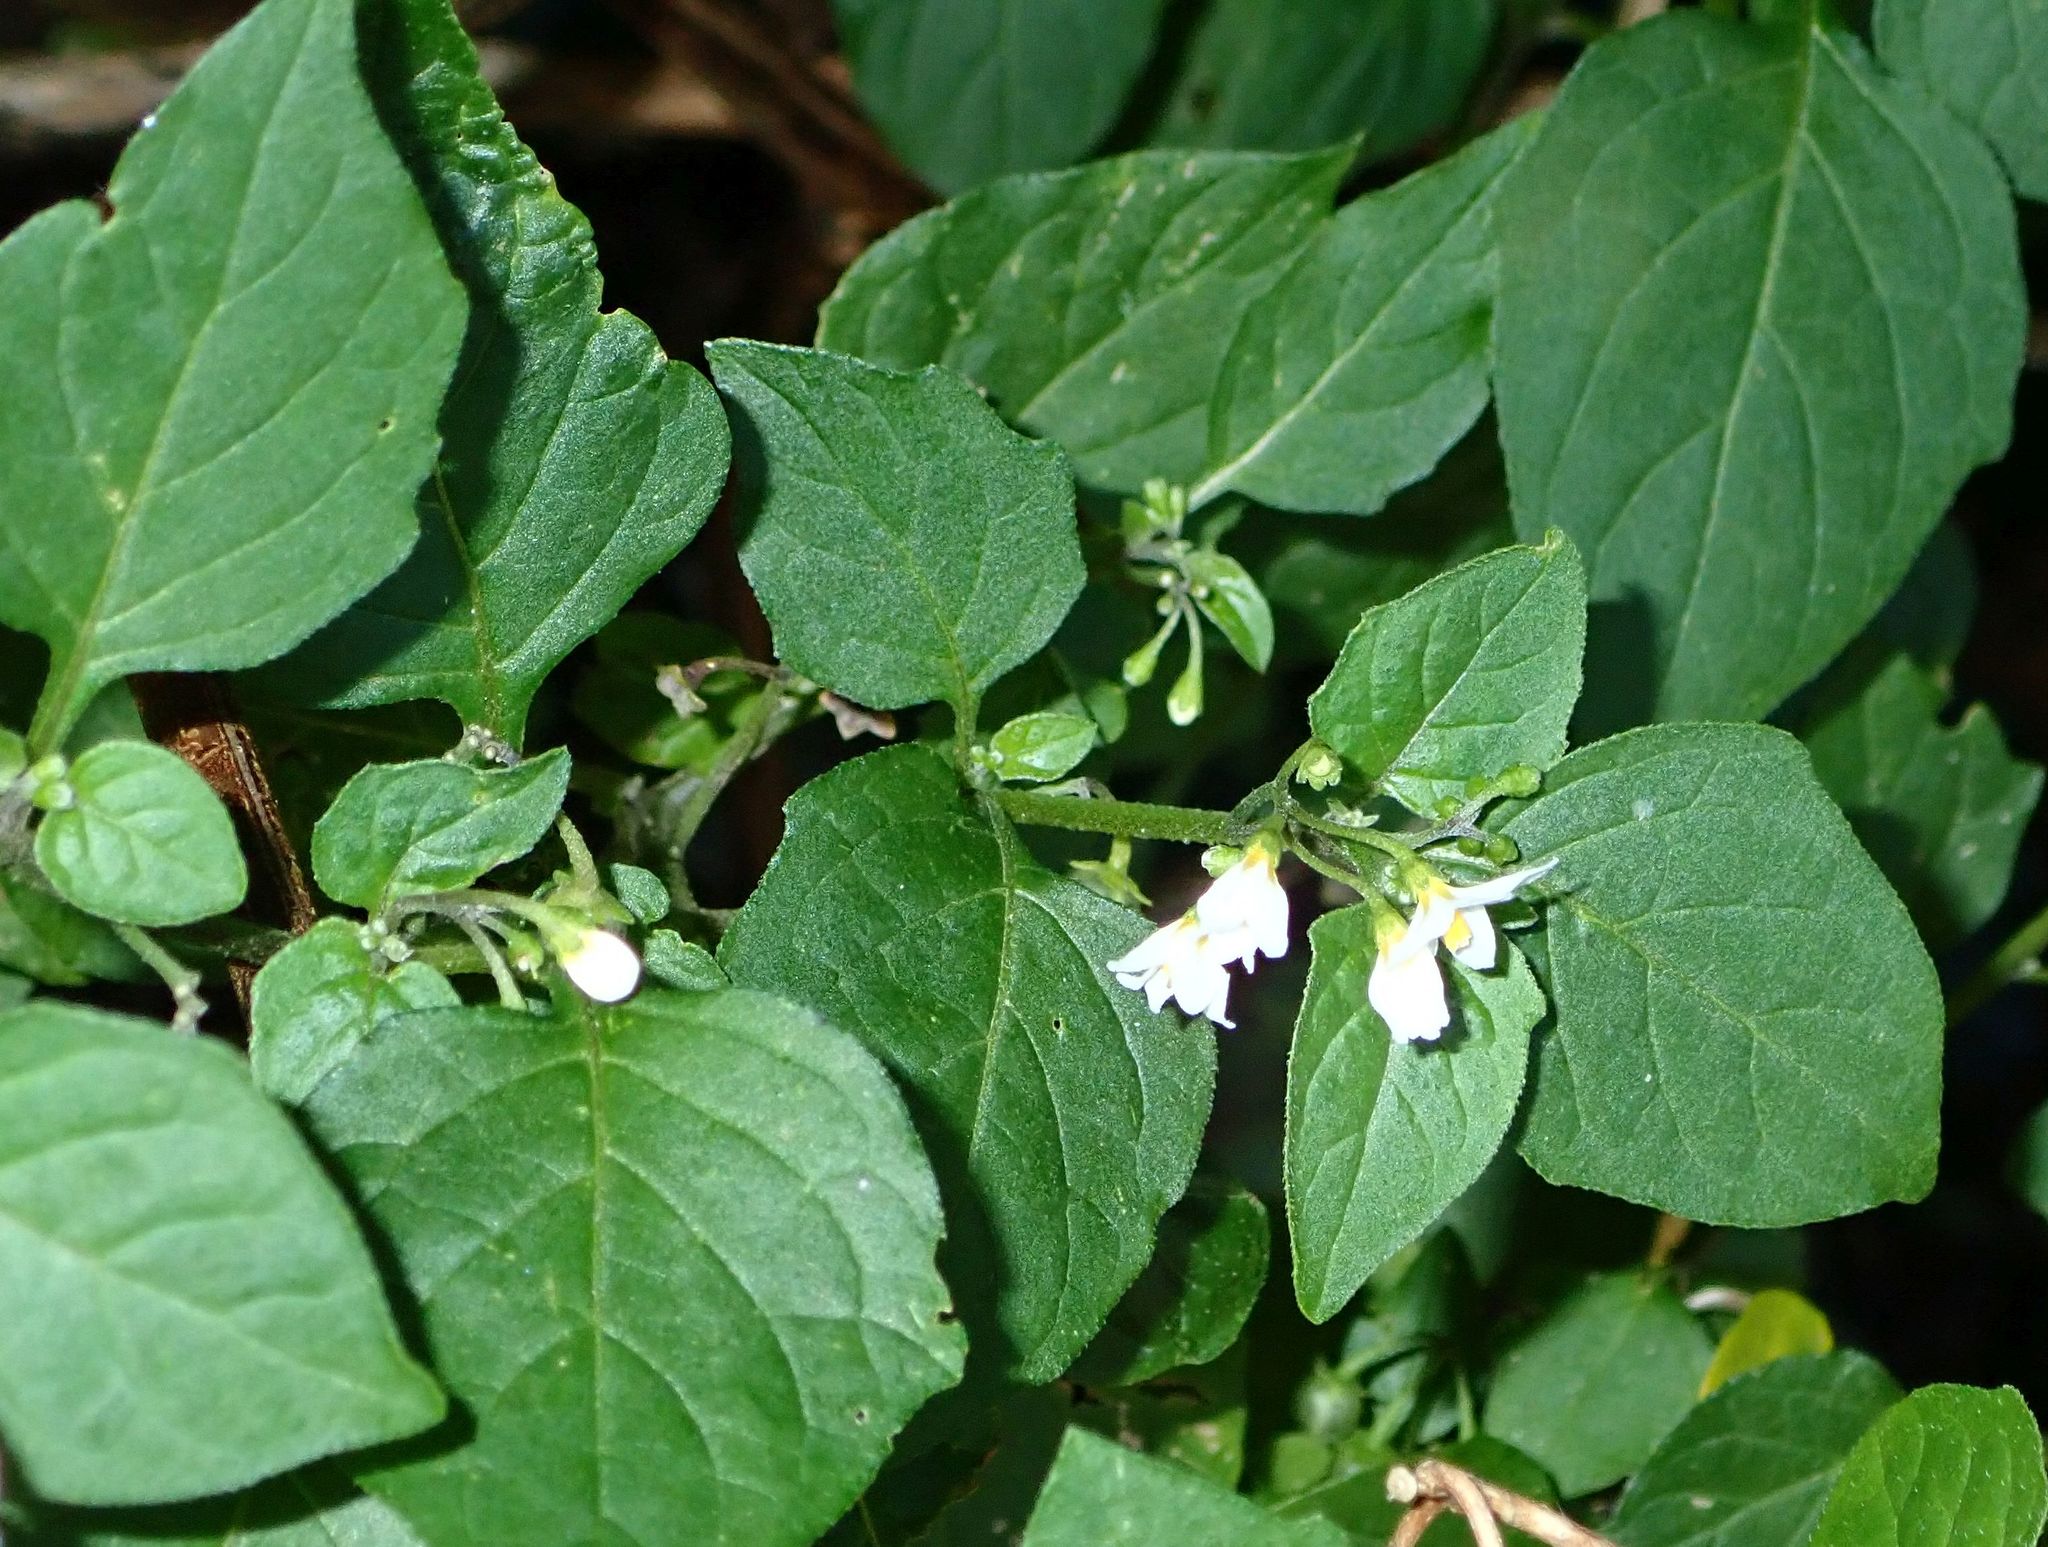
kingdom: Plantae
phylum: Tracheophyta
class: Magnoliopsida
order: Solanales
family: Solanaceae
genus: Solanum
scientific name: Solanum nigrum
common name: Black nightshade
